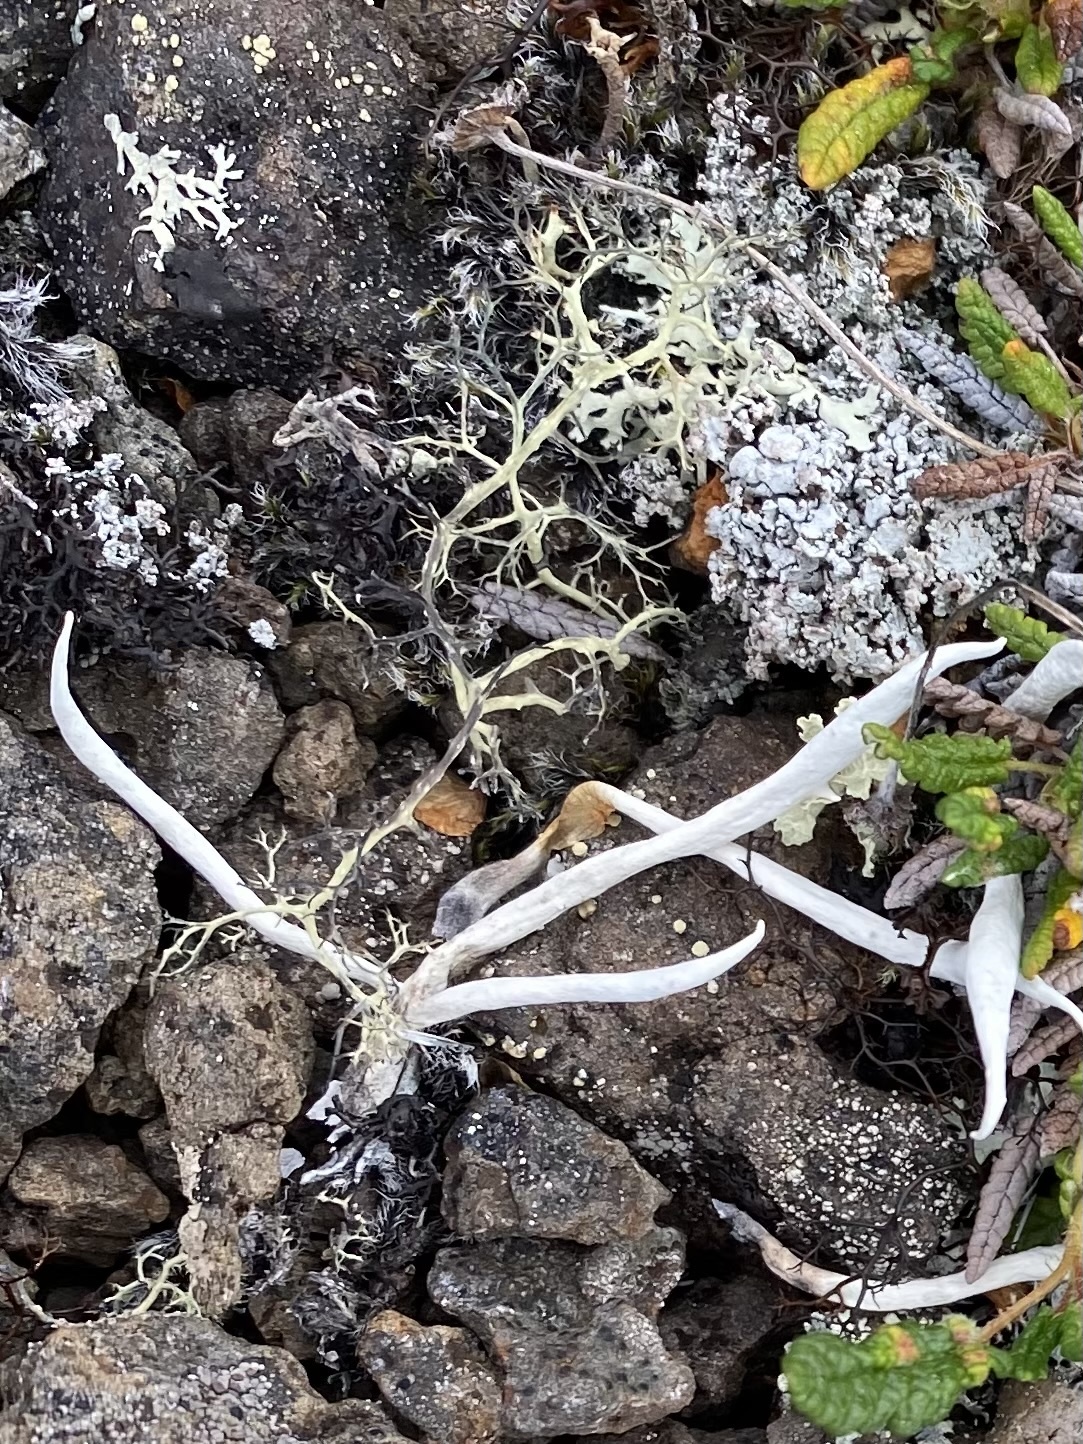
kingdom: Fungi
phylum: Ascomycota
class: Lecanoromycetes
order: Pertusariales
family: Icmadophilaceae
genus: Thamnolia
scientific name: Thamnolia vermicularis
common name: Whiteworm lichen
